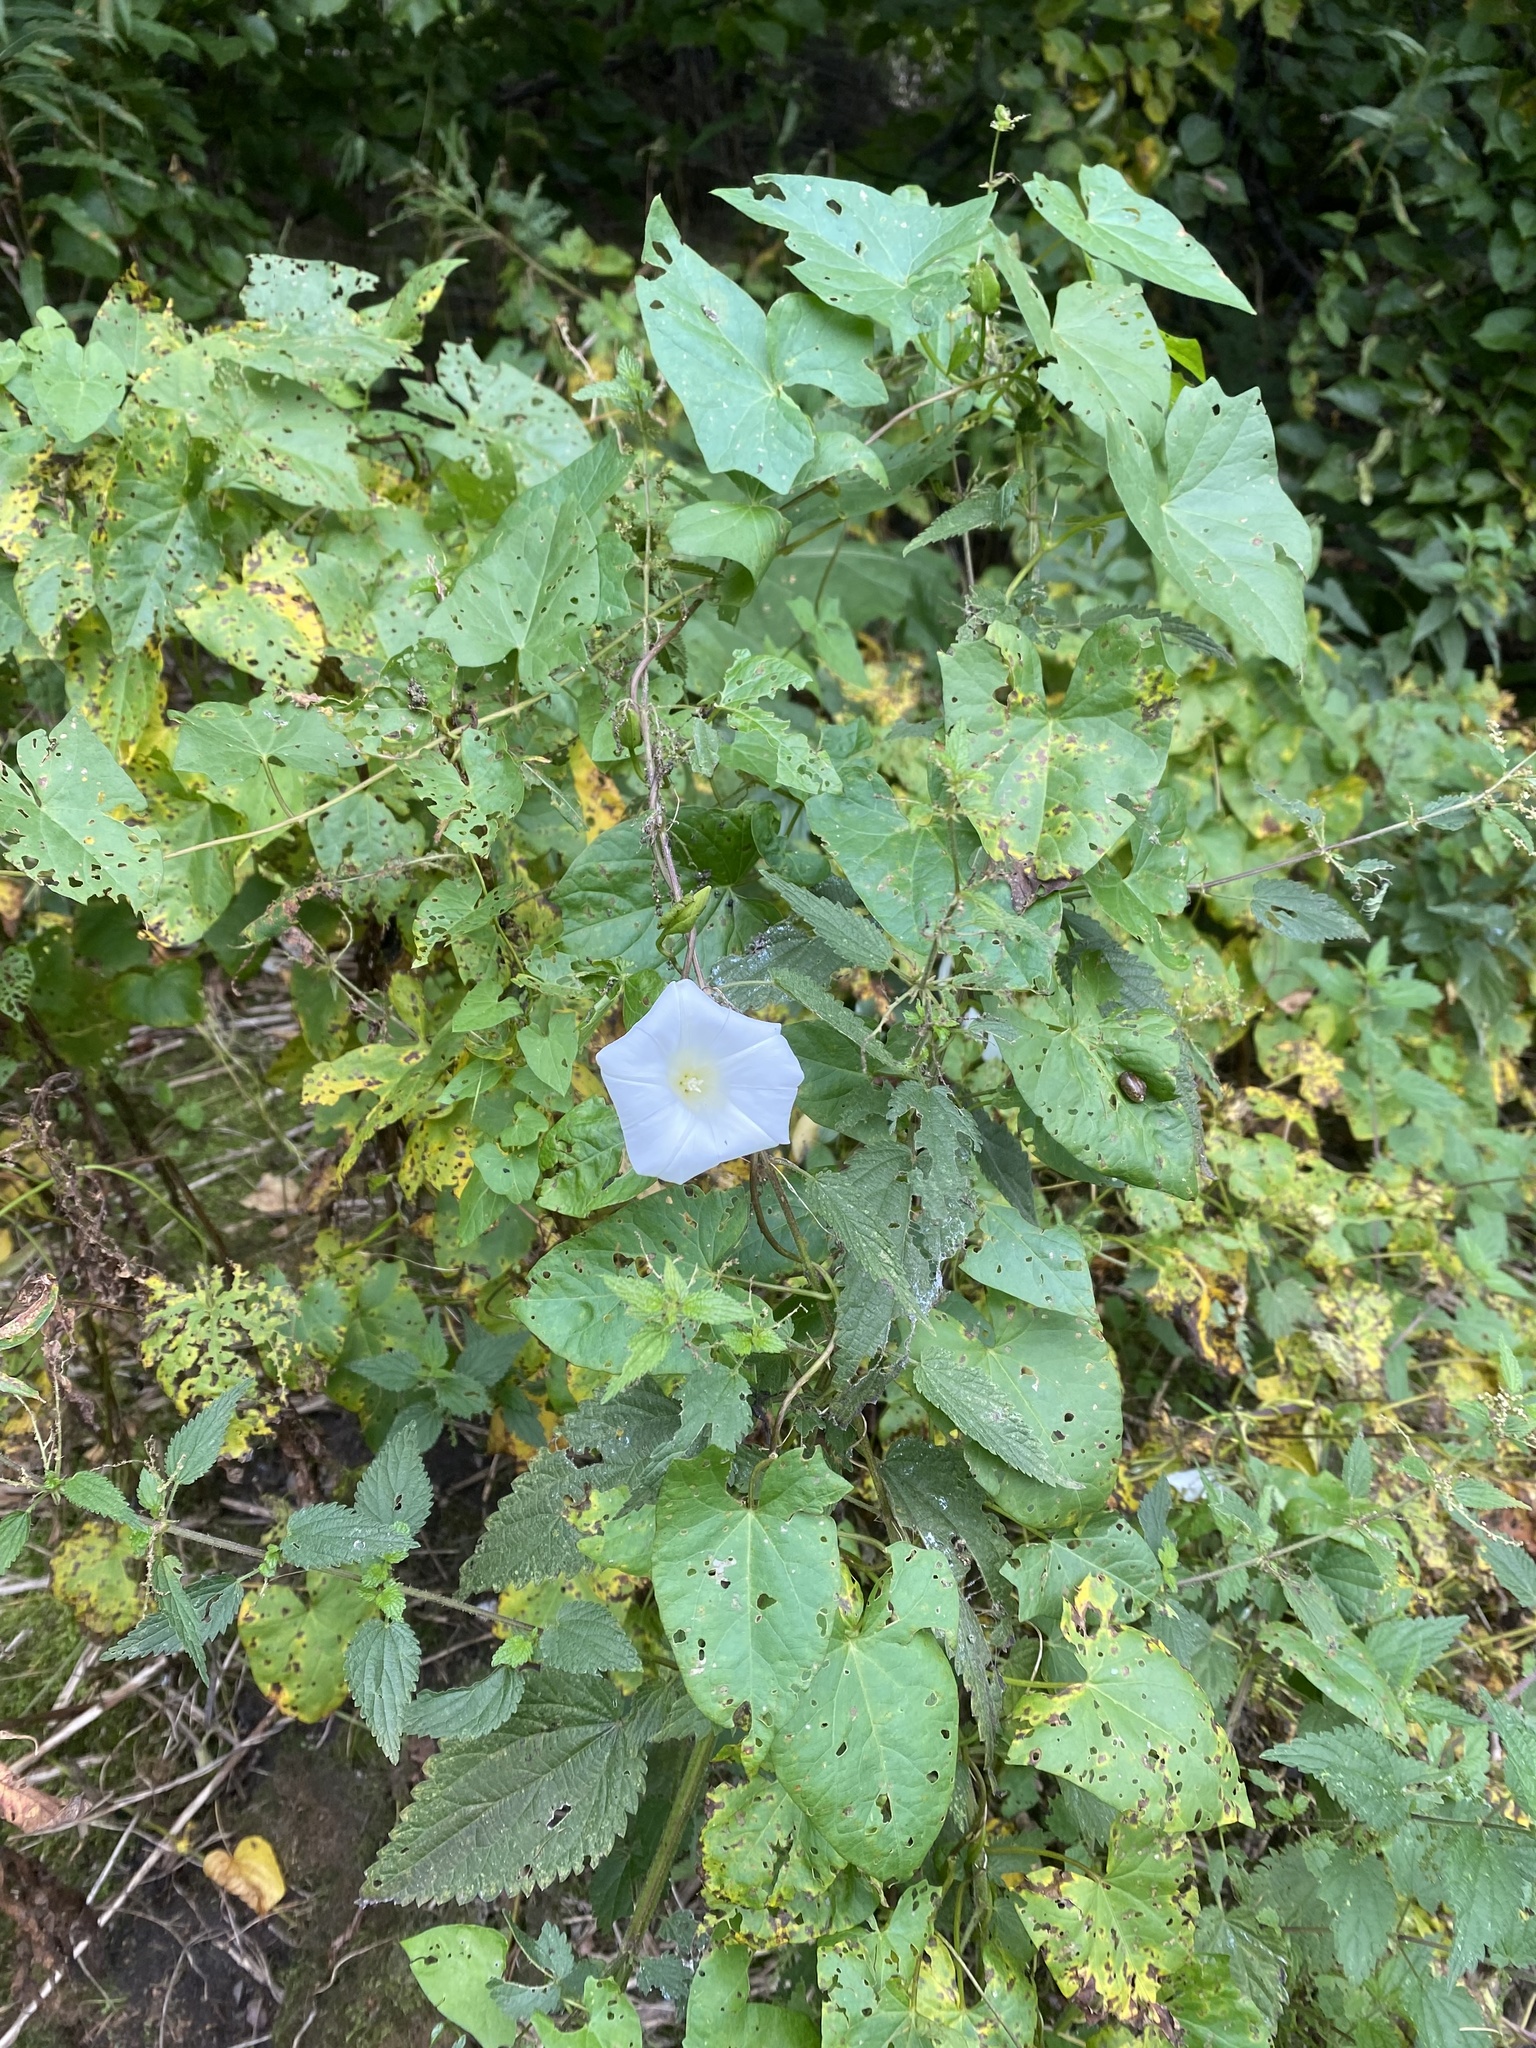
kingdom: Plantae
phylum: Tracheophyta
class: Magnoliopsida
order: Solanales
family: Convolvulaceae
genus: Calystegia
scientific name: Calystegia sepium
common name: Hedge bindweed
